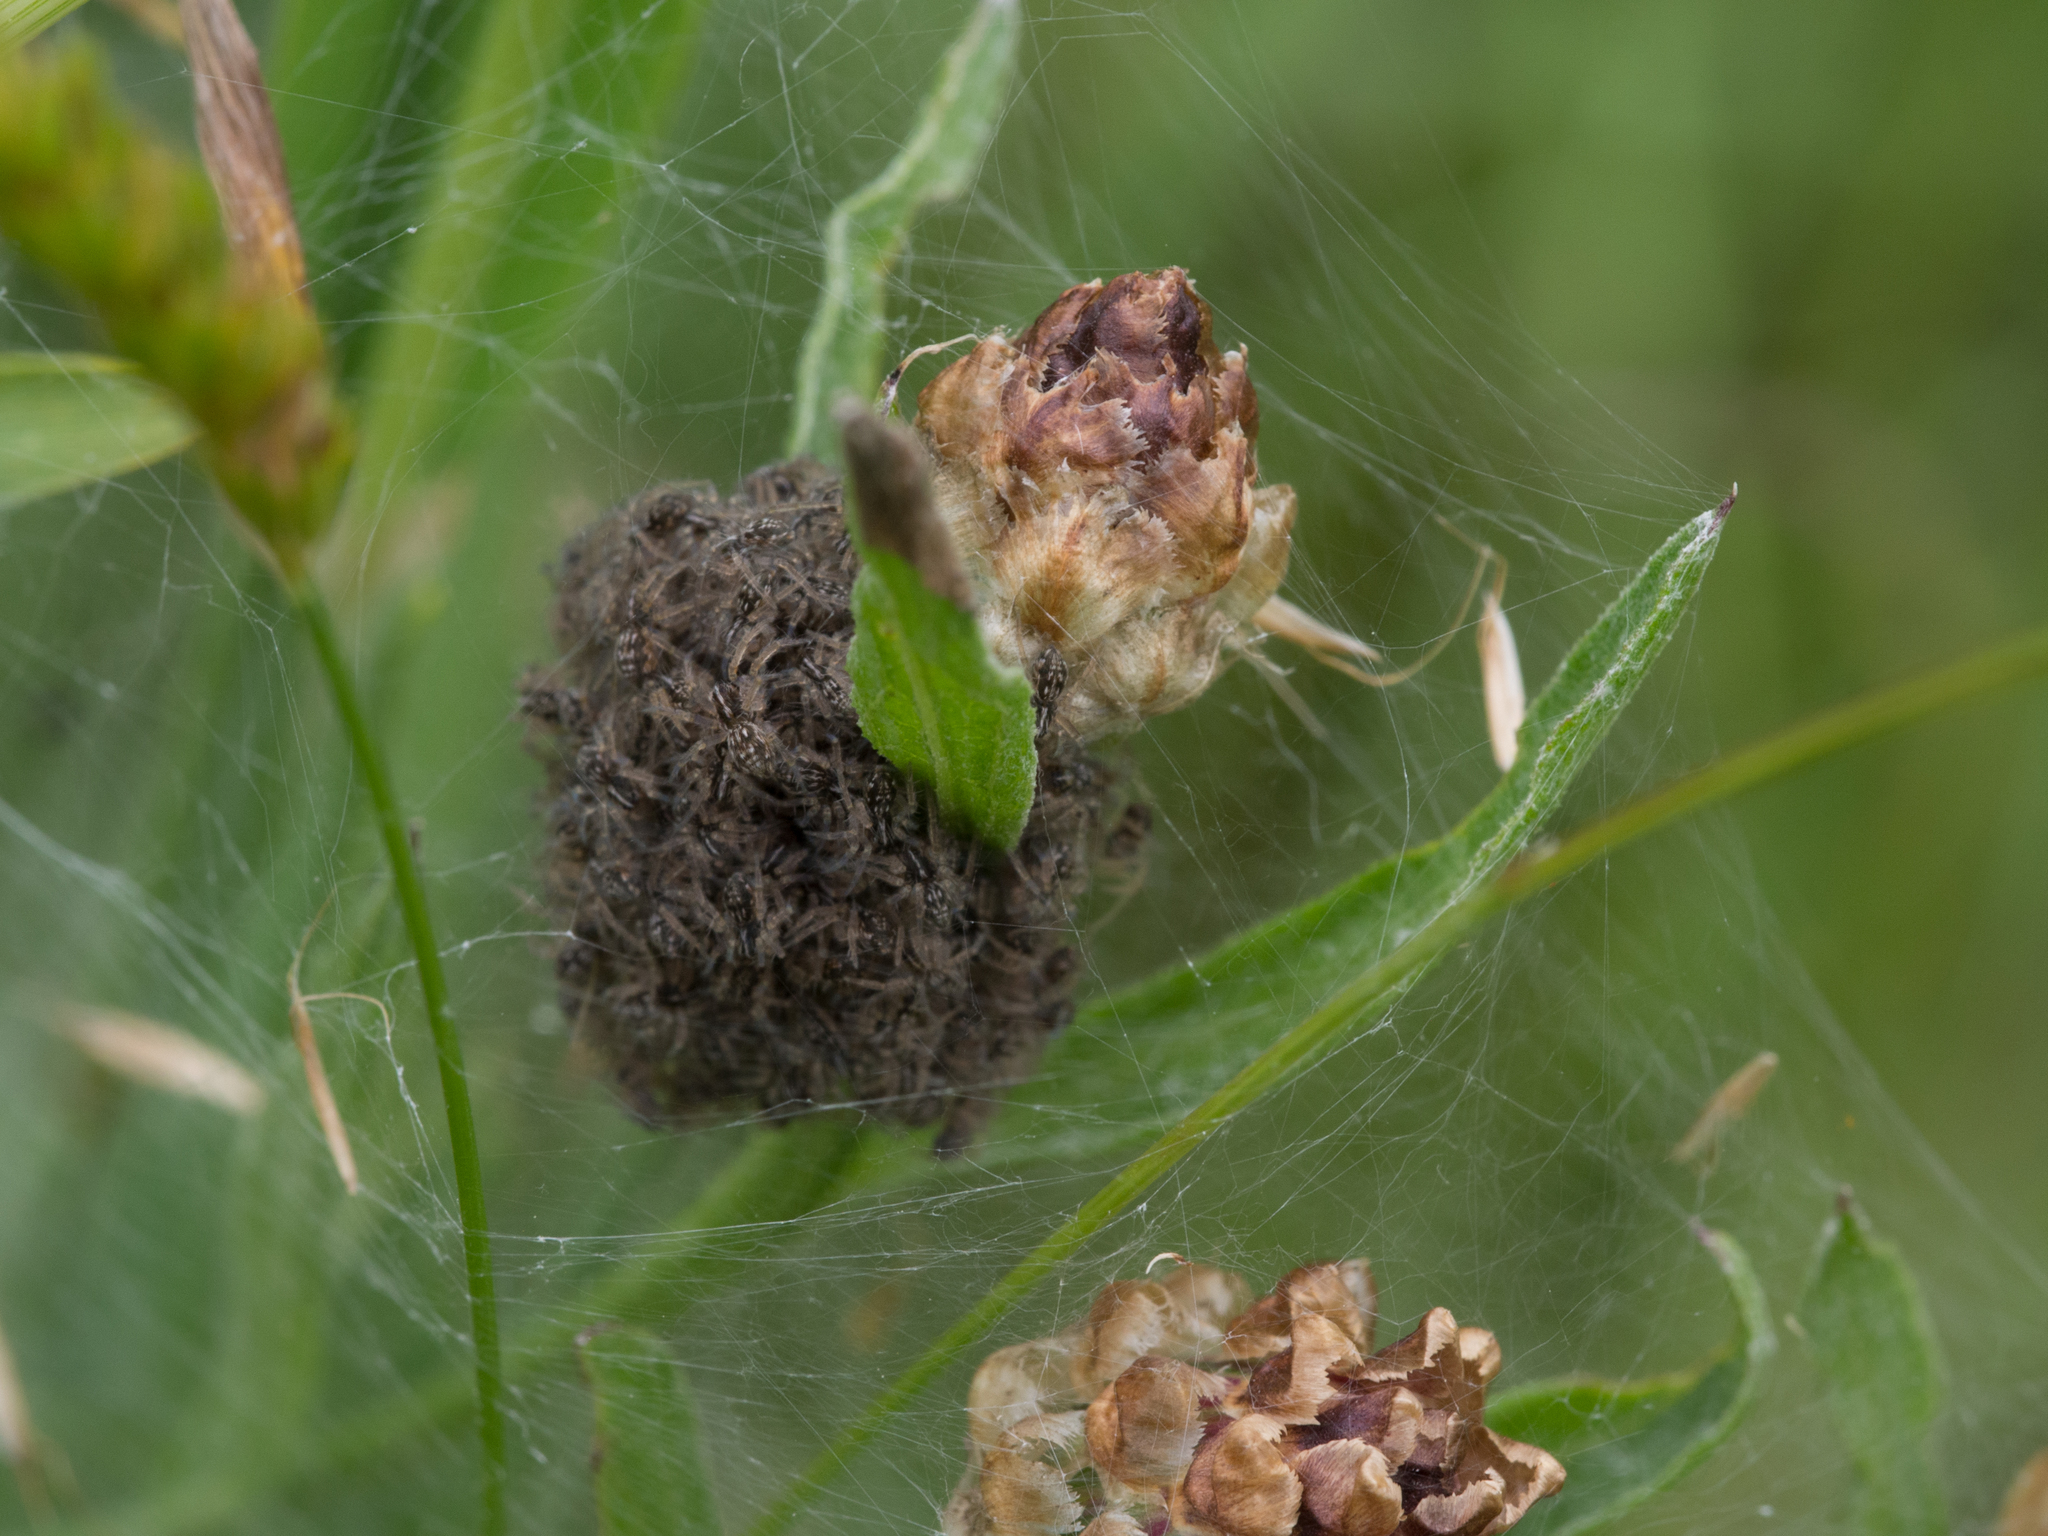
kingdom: Animalia
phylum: Arthropoda
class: Arachnida
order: Araneae
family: Pisauridae
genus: Pisaura
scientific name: Pisaura mirabilis
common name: Tent spider
